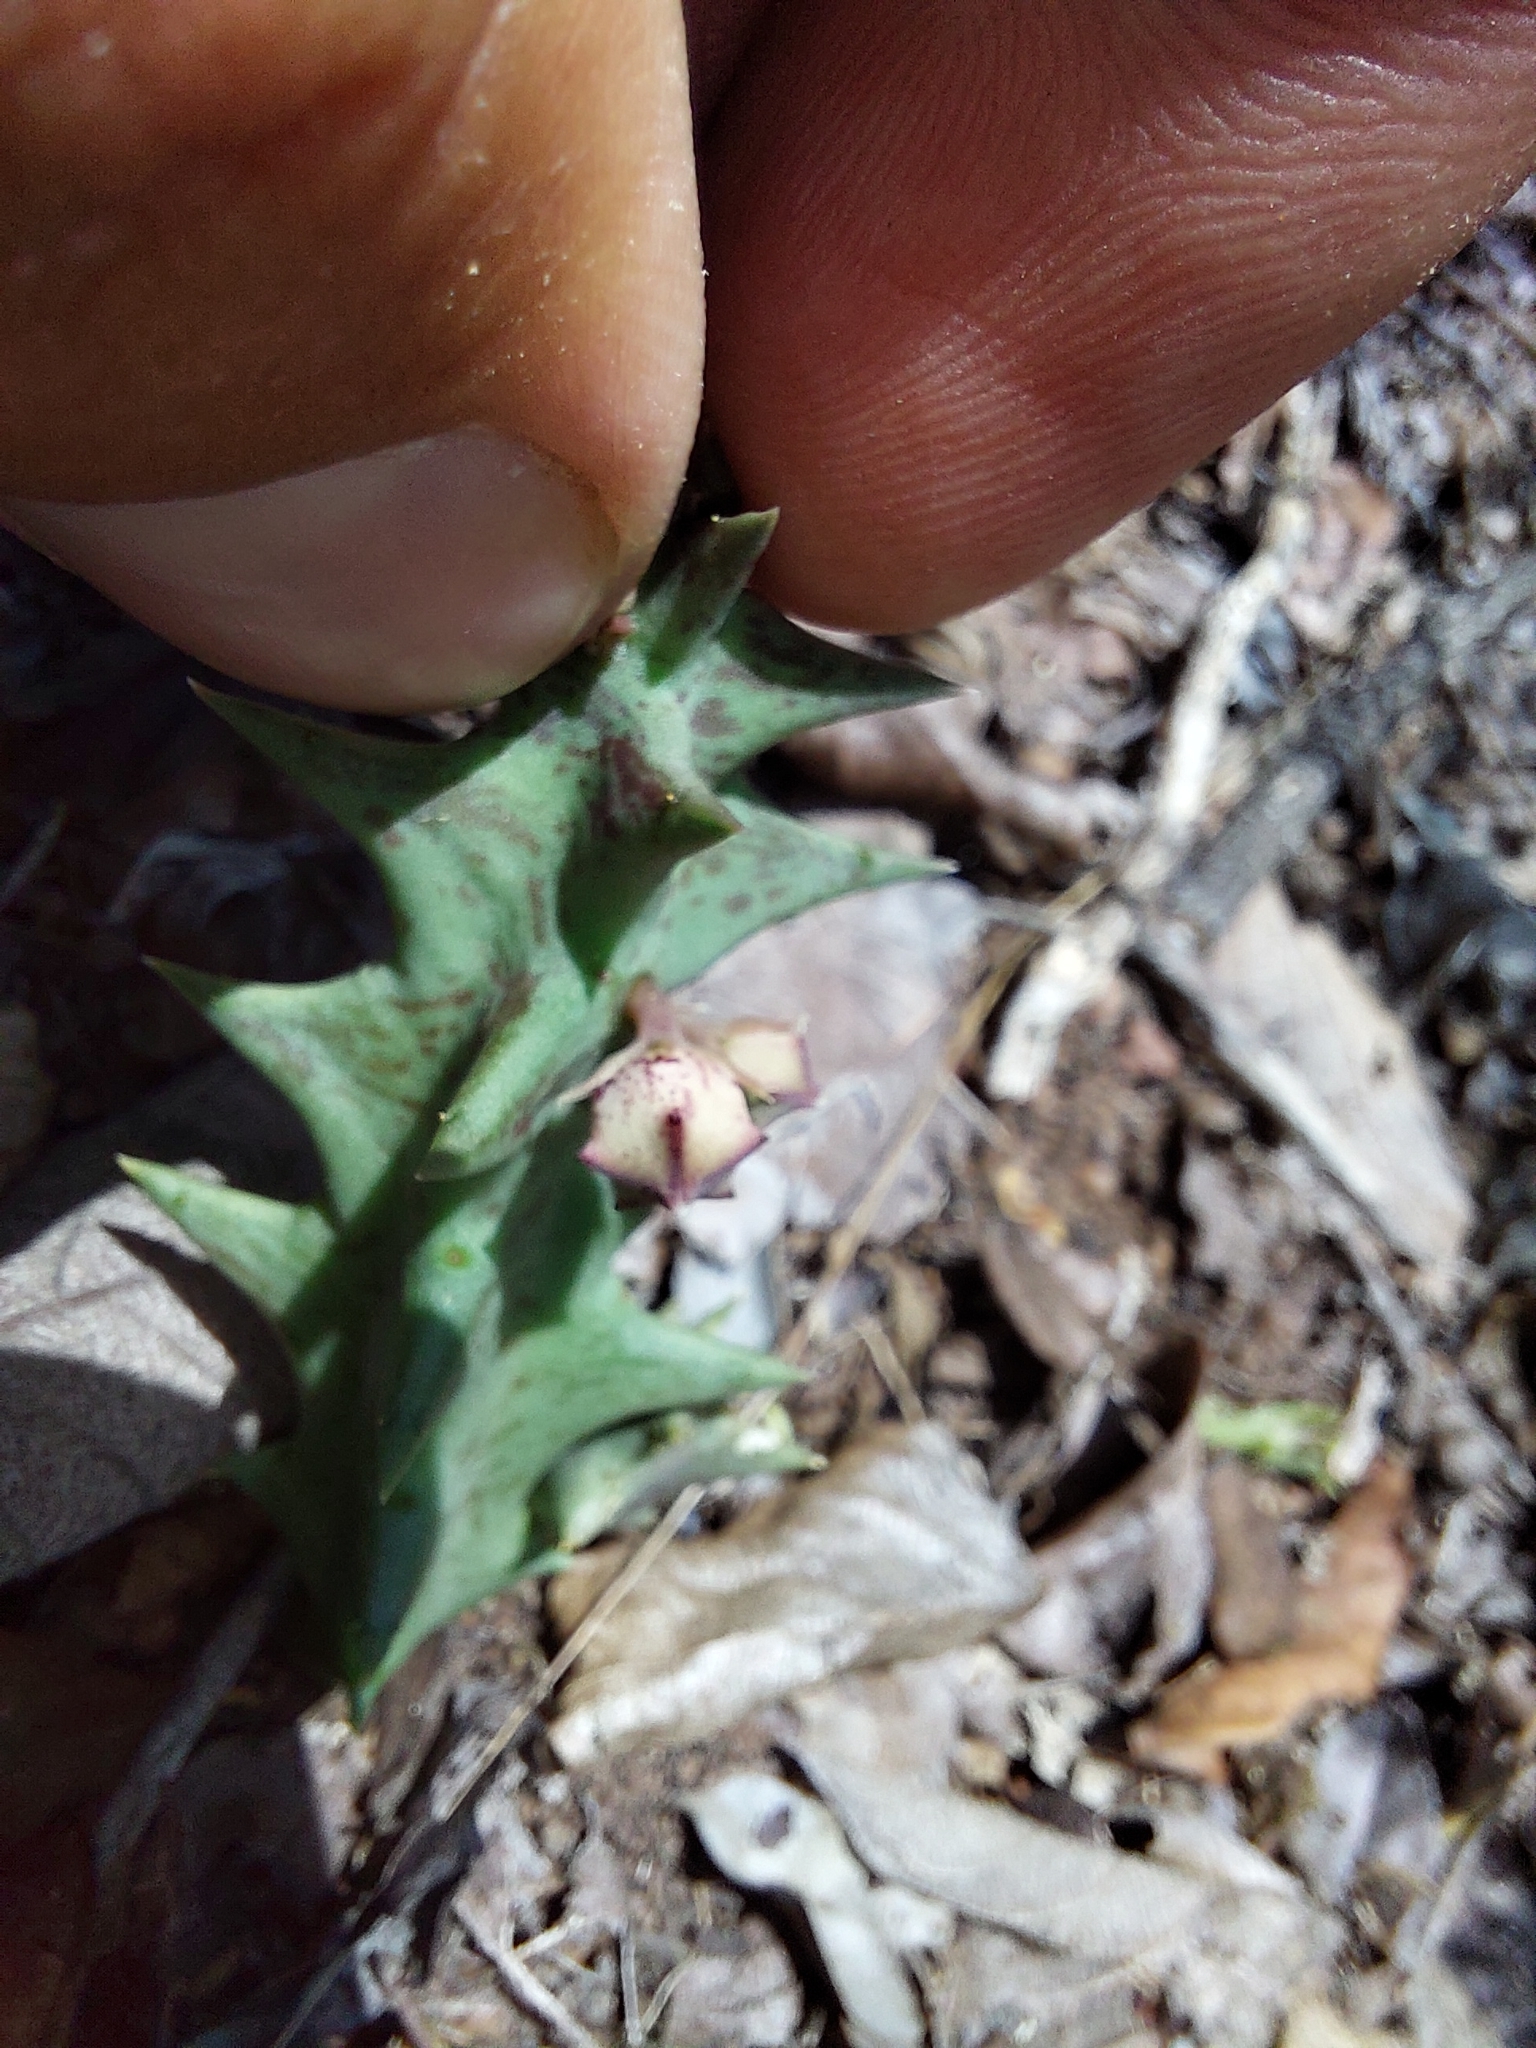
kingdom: Plantae
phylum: Tracheophyta
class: Magnoliopsida
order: Gentianales
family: Apocynaceae
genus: Ceropegia
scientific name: Ceropegia keithii
